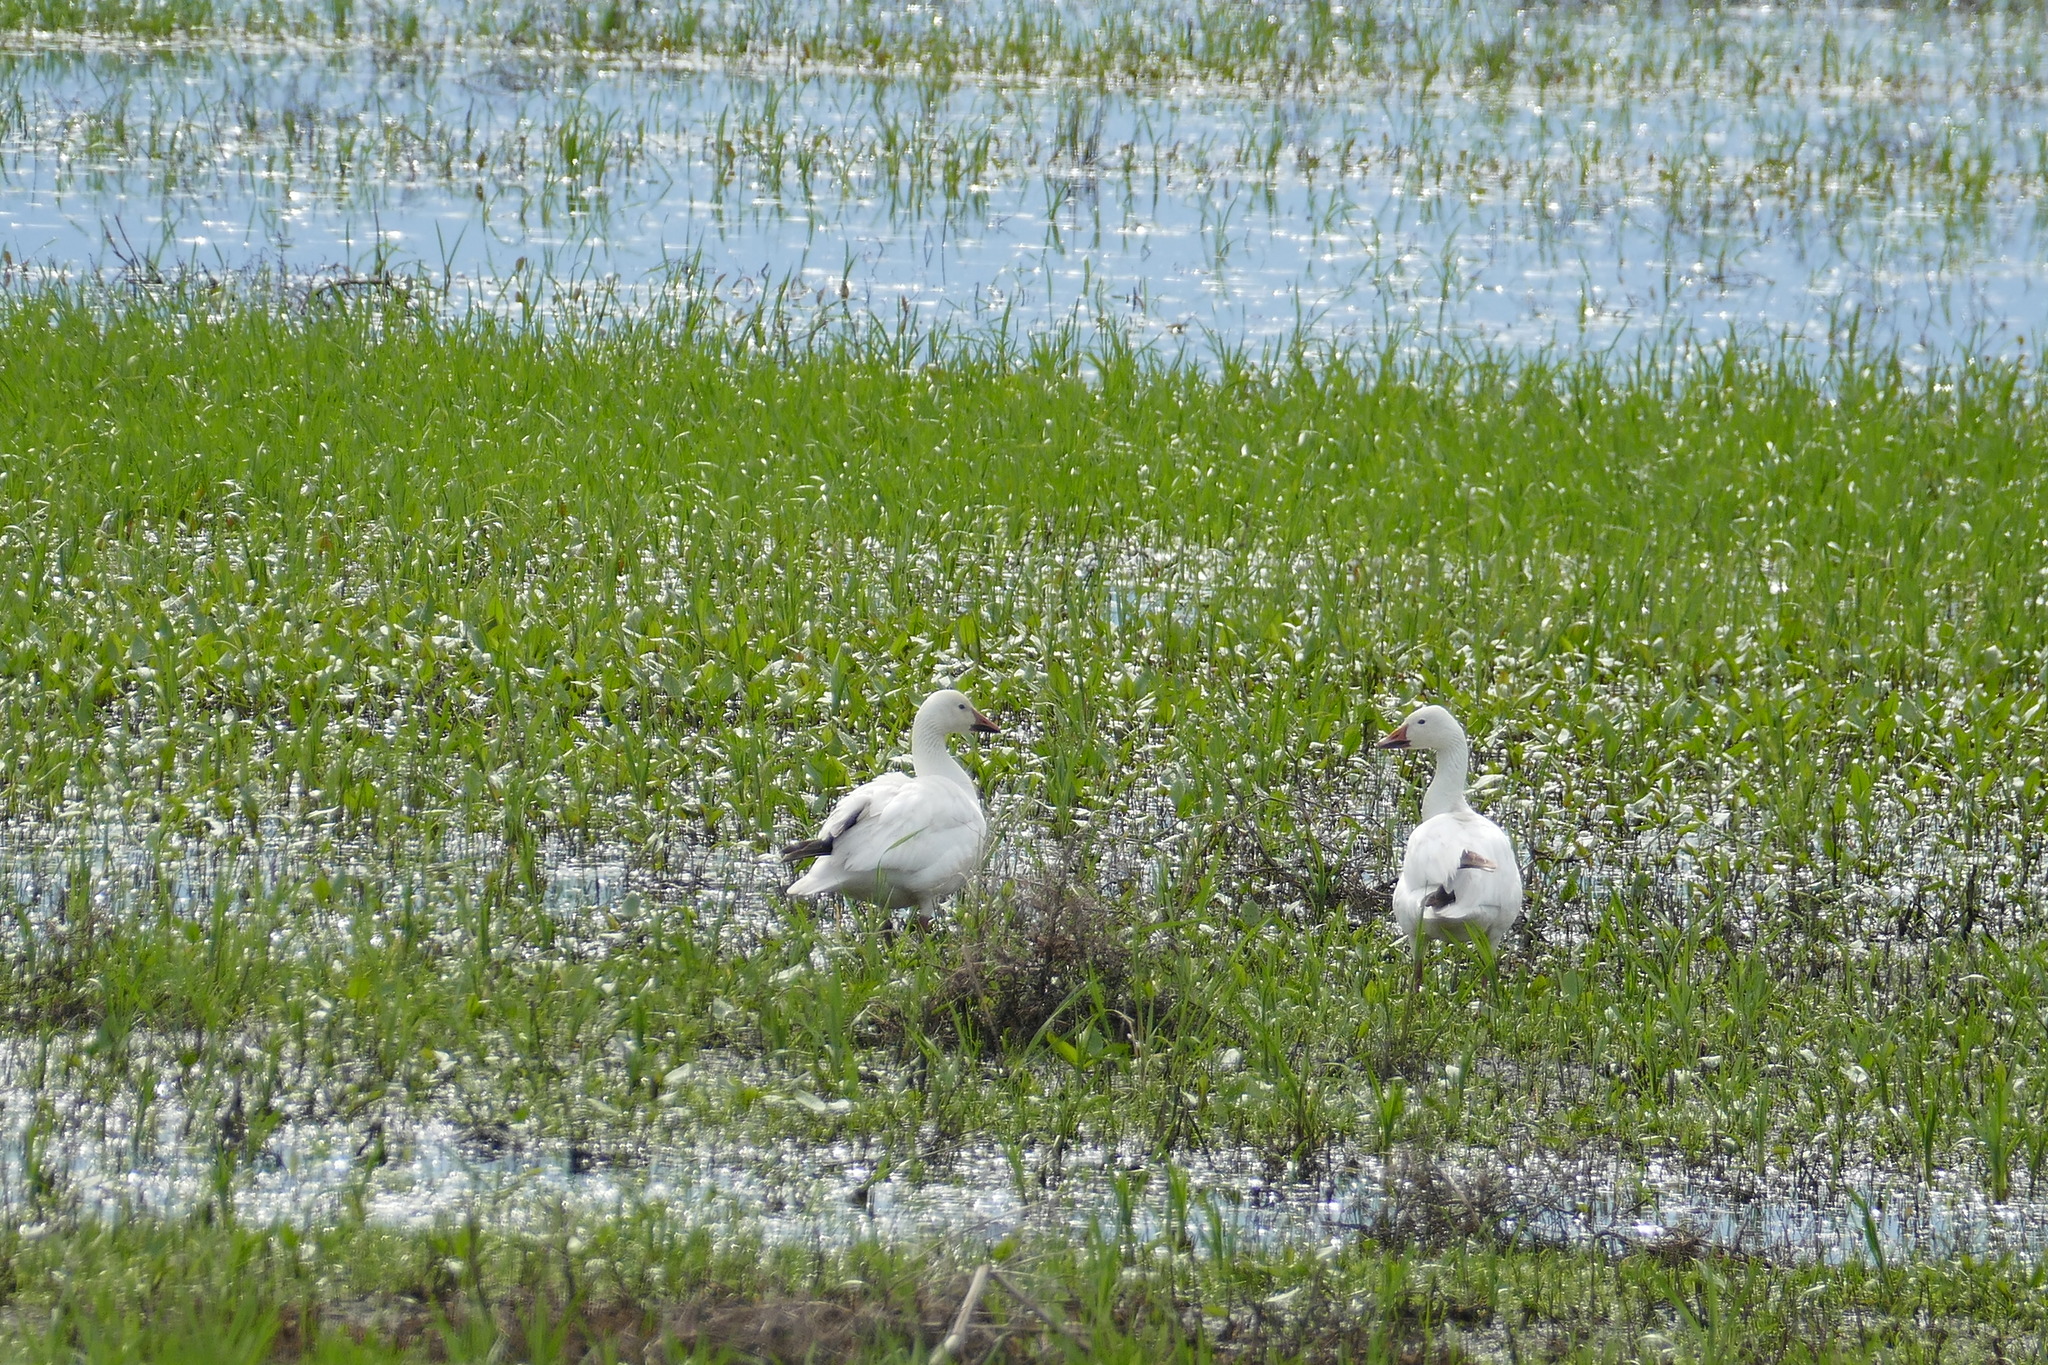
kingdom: Animalia
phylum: Chordata
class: Aves
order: Anseriformes
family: Anatidae
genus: Anser
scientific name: Anser caerulescens
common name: Snow goose
